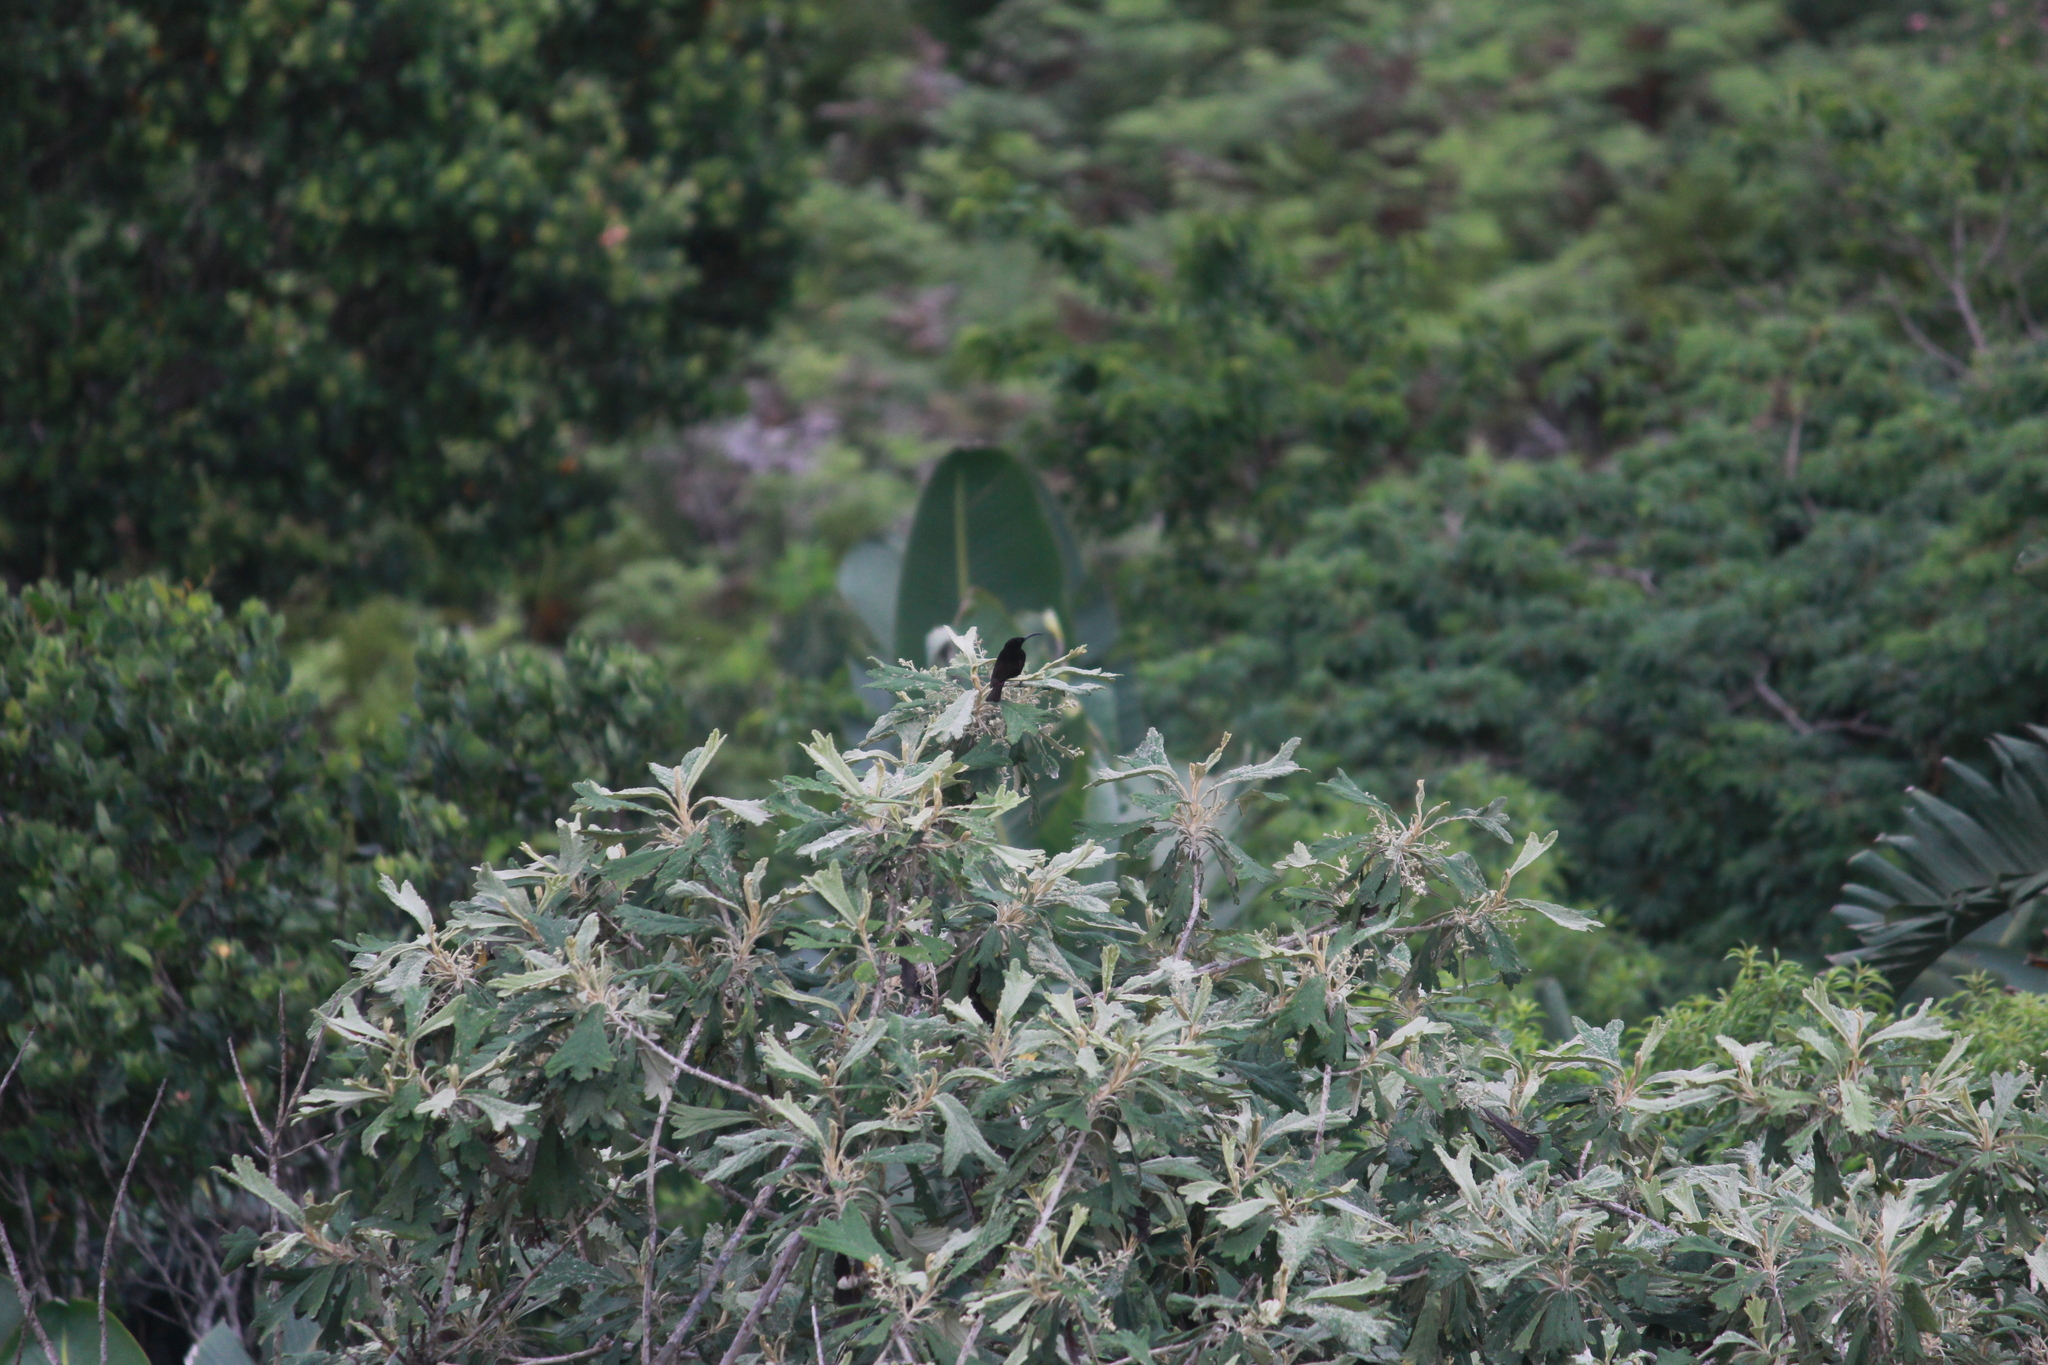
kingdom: Animalia
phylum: Chordata
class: Aves
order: Passeriformes
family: Nectariniidae
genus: Chalcomitra
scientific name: Chalcomitra amethystina
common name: Amethyst sunbird
